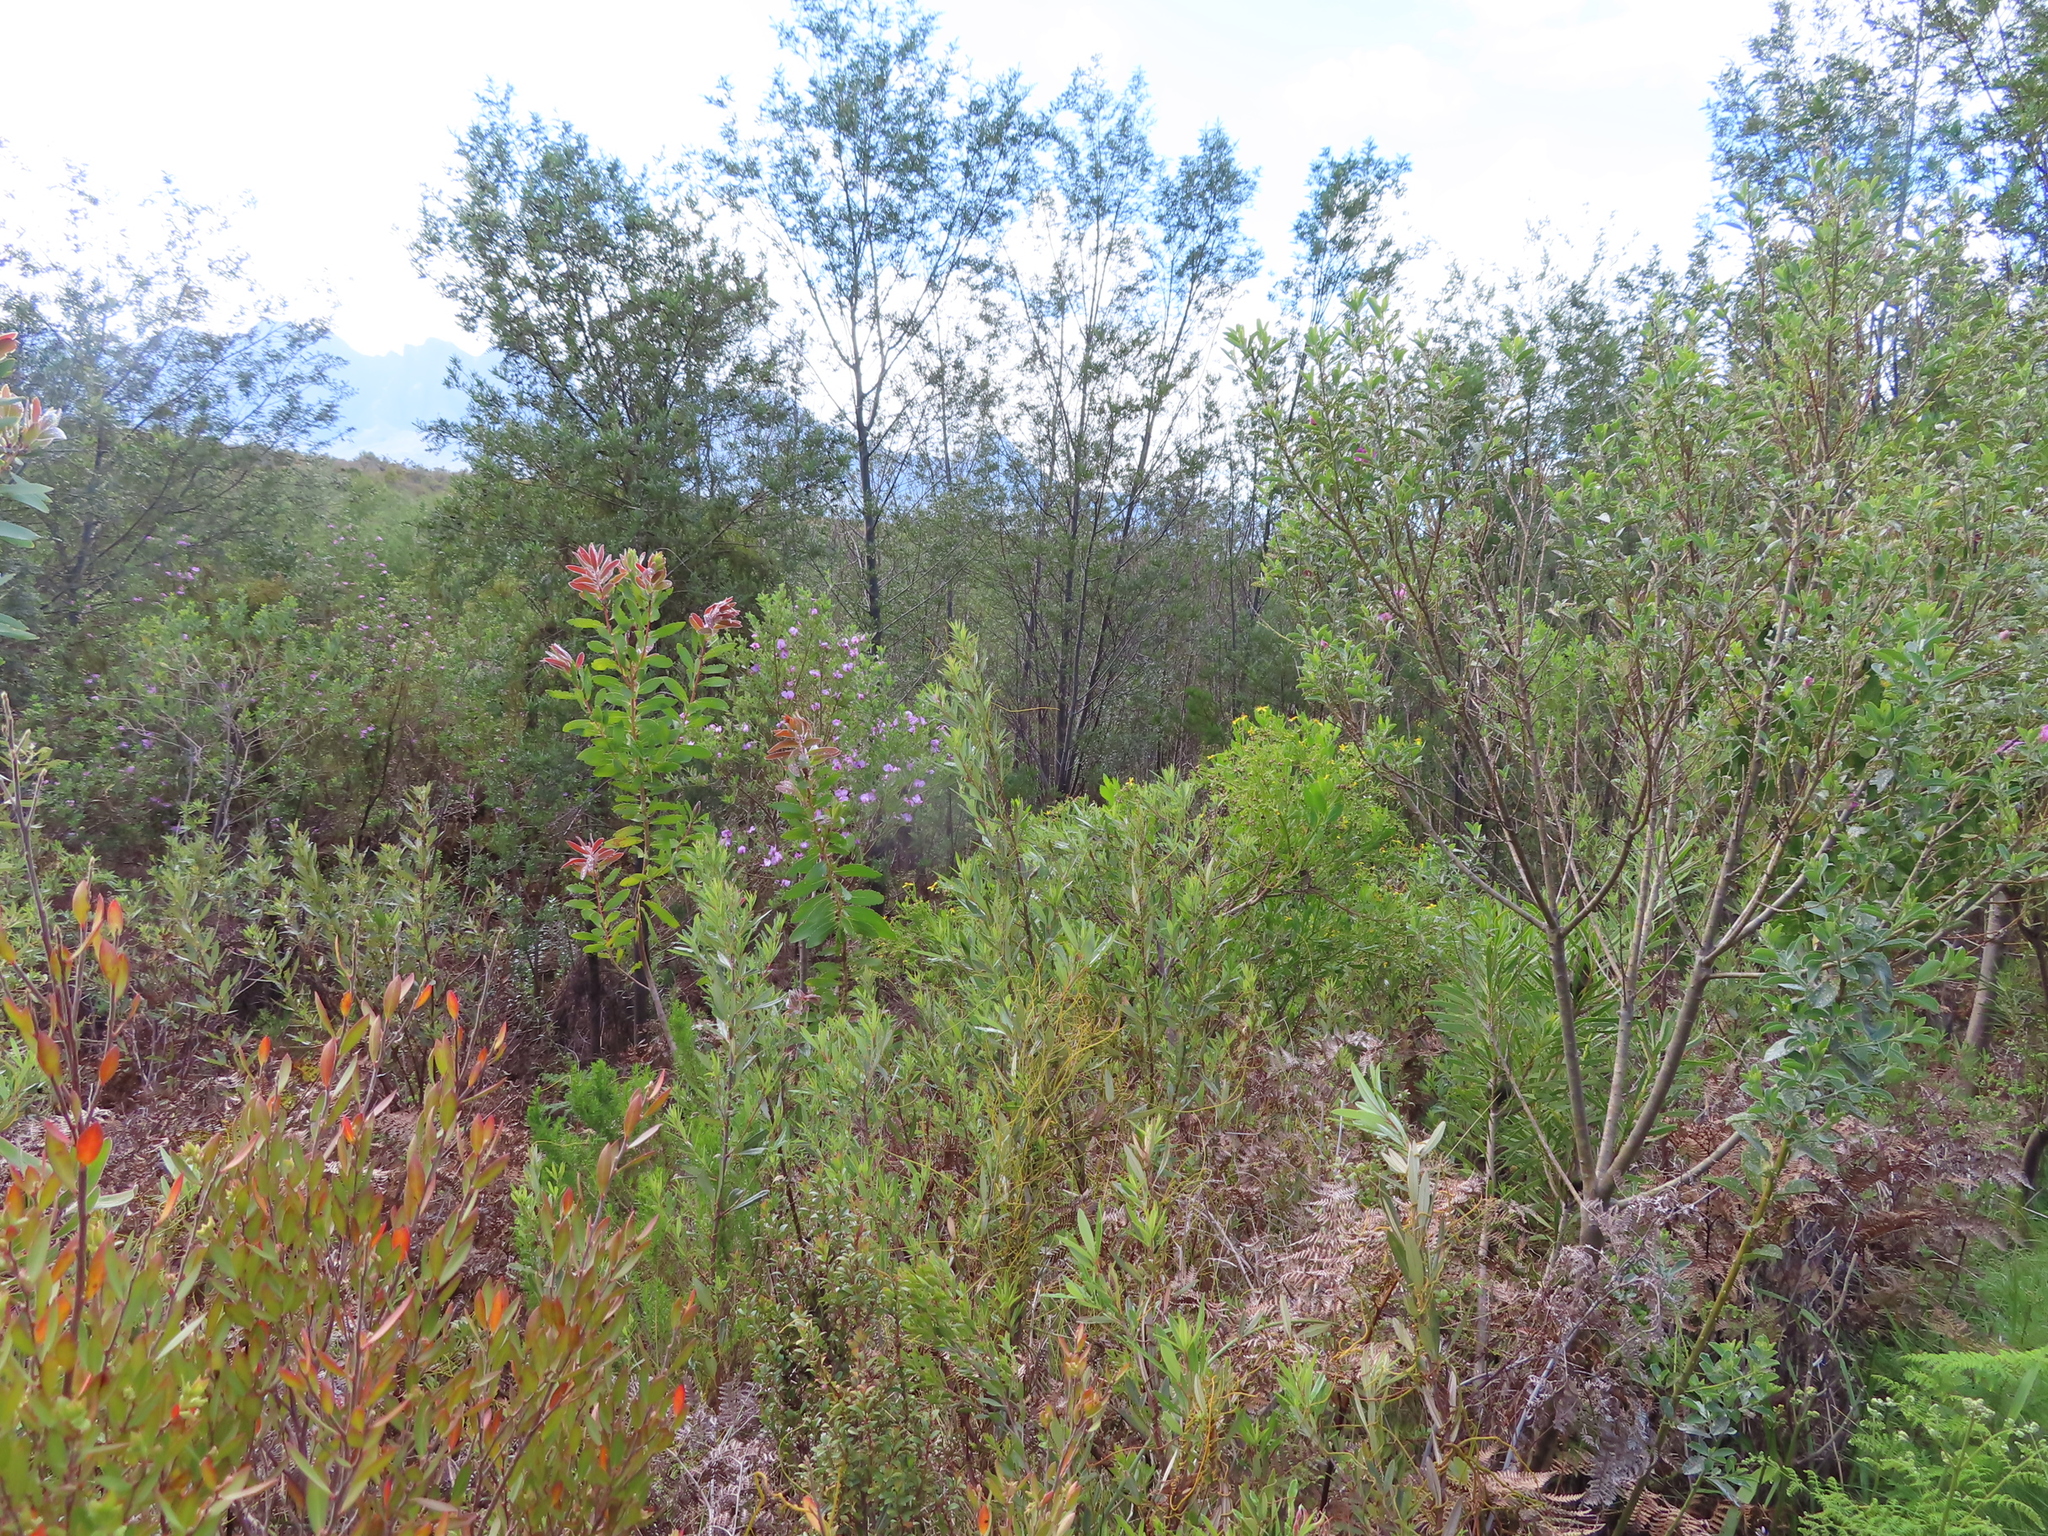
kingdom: Plantae
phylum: Tracheophyta
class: Magnoliopsida
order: Fabales
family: Fabaceae
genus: Podalyria
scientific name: Podalyria calyptrata
